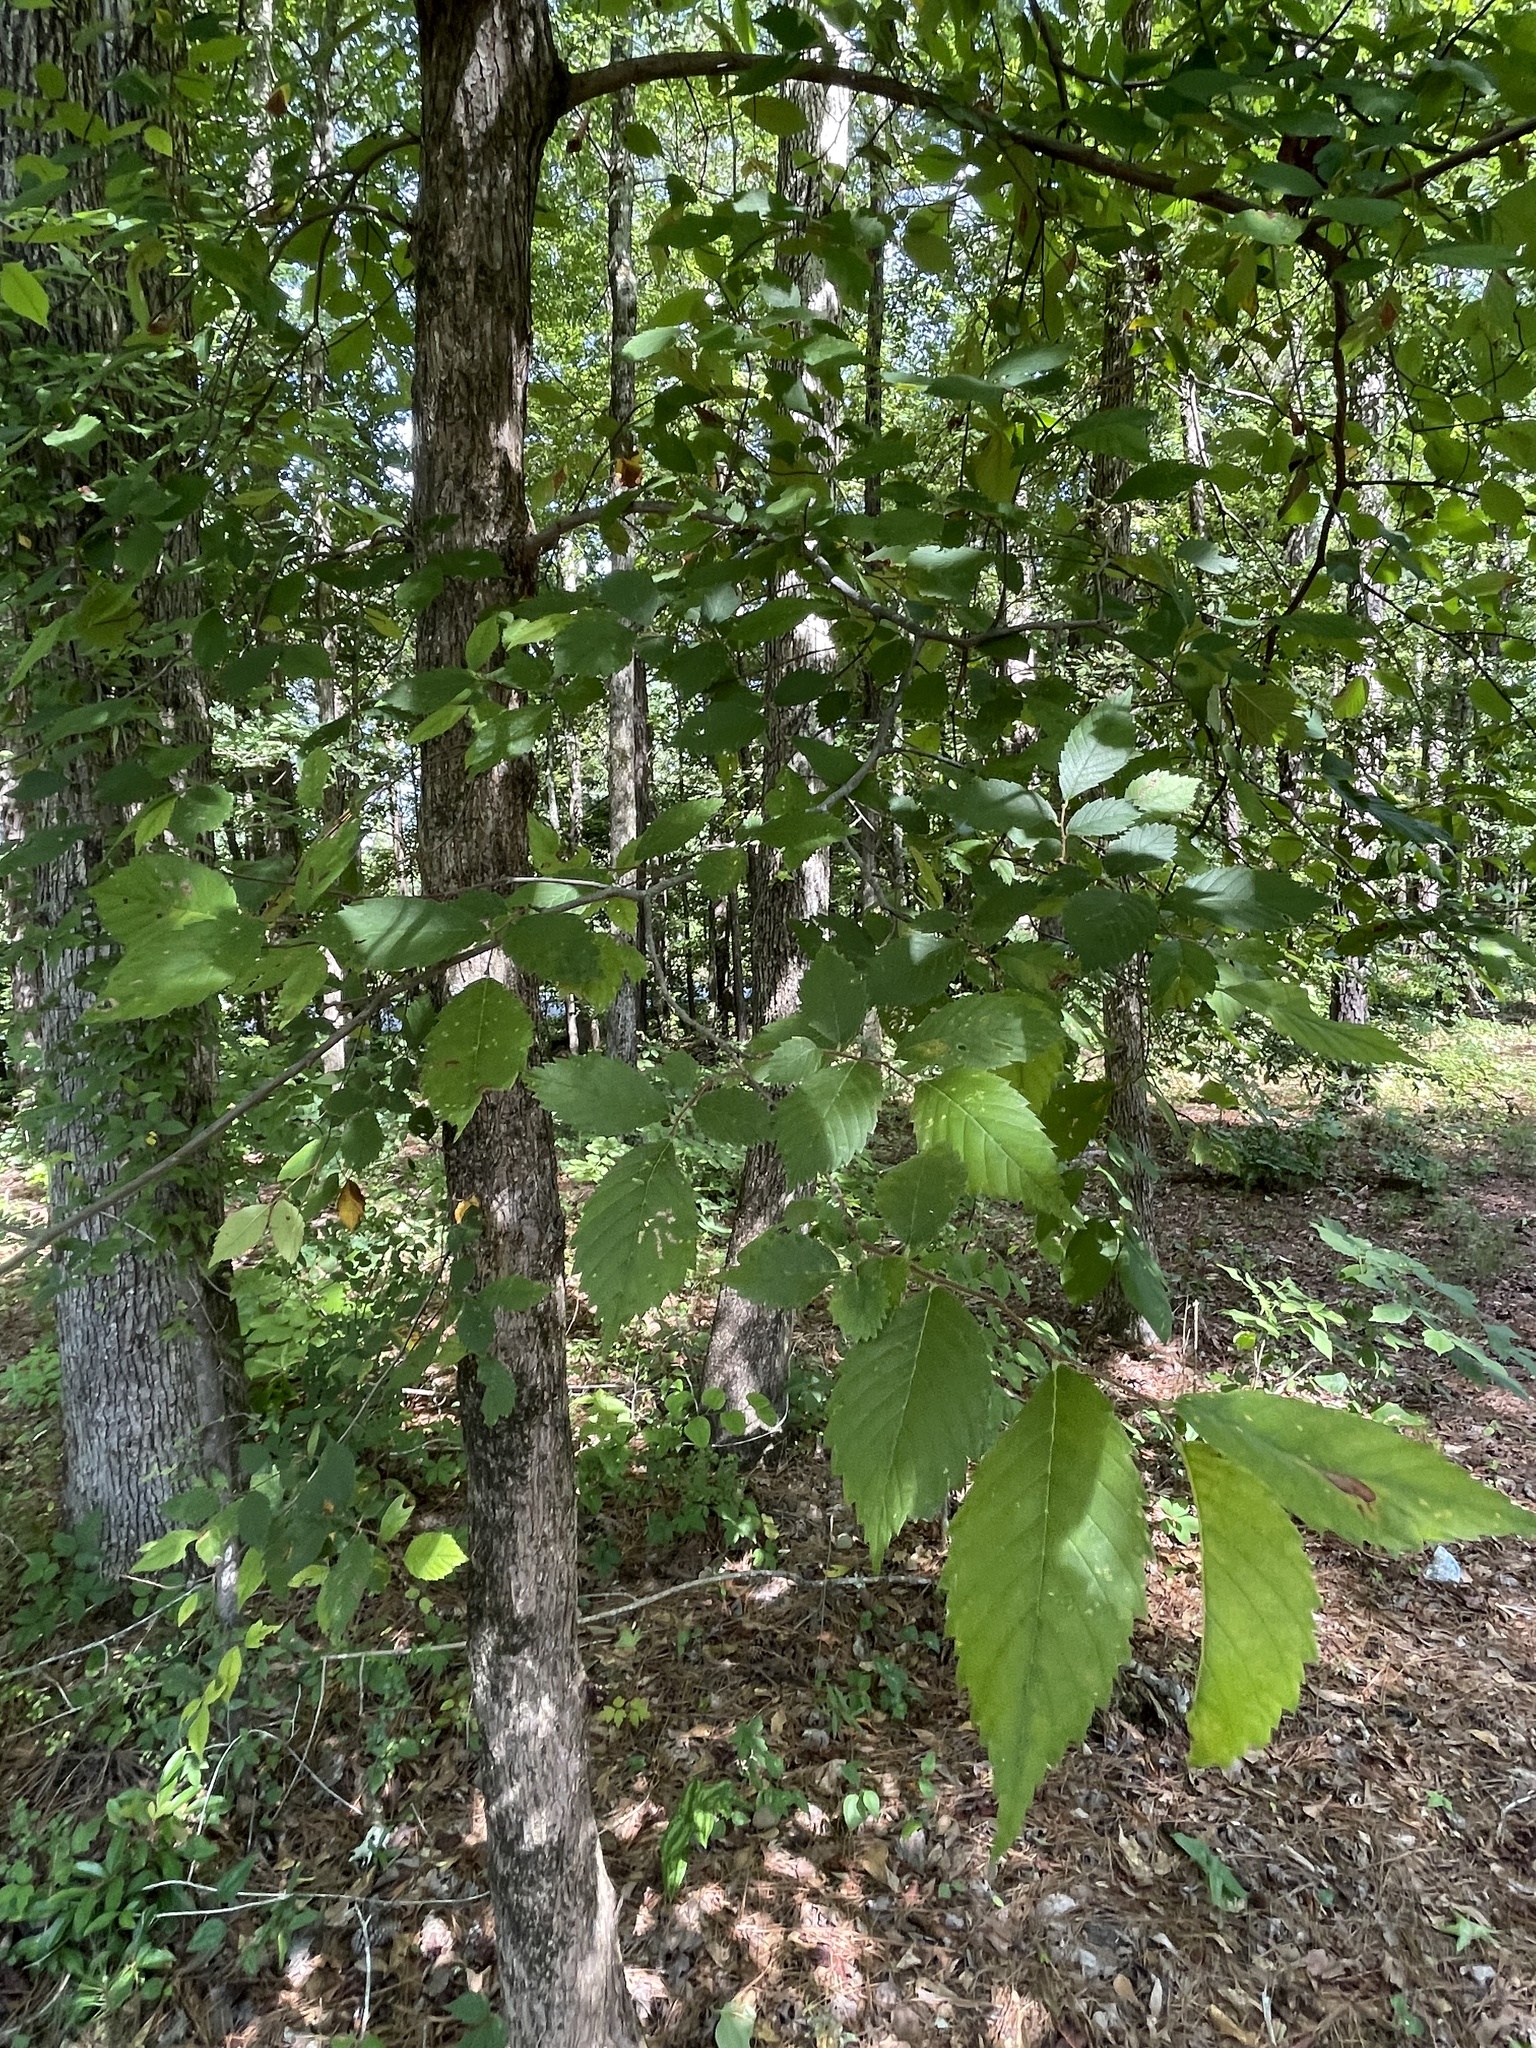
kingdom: Plantae
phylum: Tracheophyta
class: Magnoliopsida
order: Rosales
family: Ulmaceae
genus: Ulmus
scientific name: Ulmus alata
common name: Winged elm
